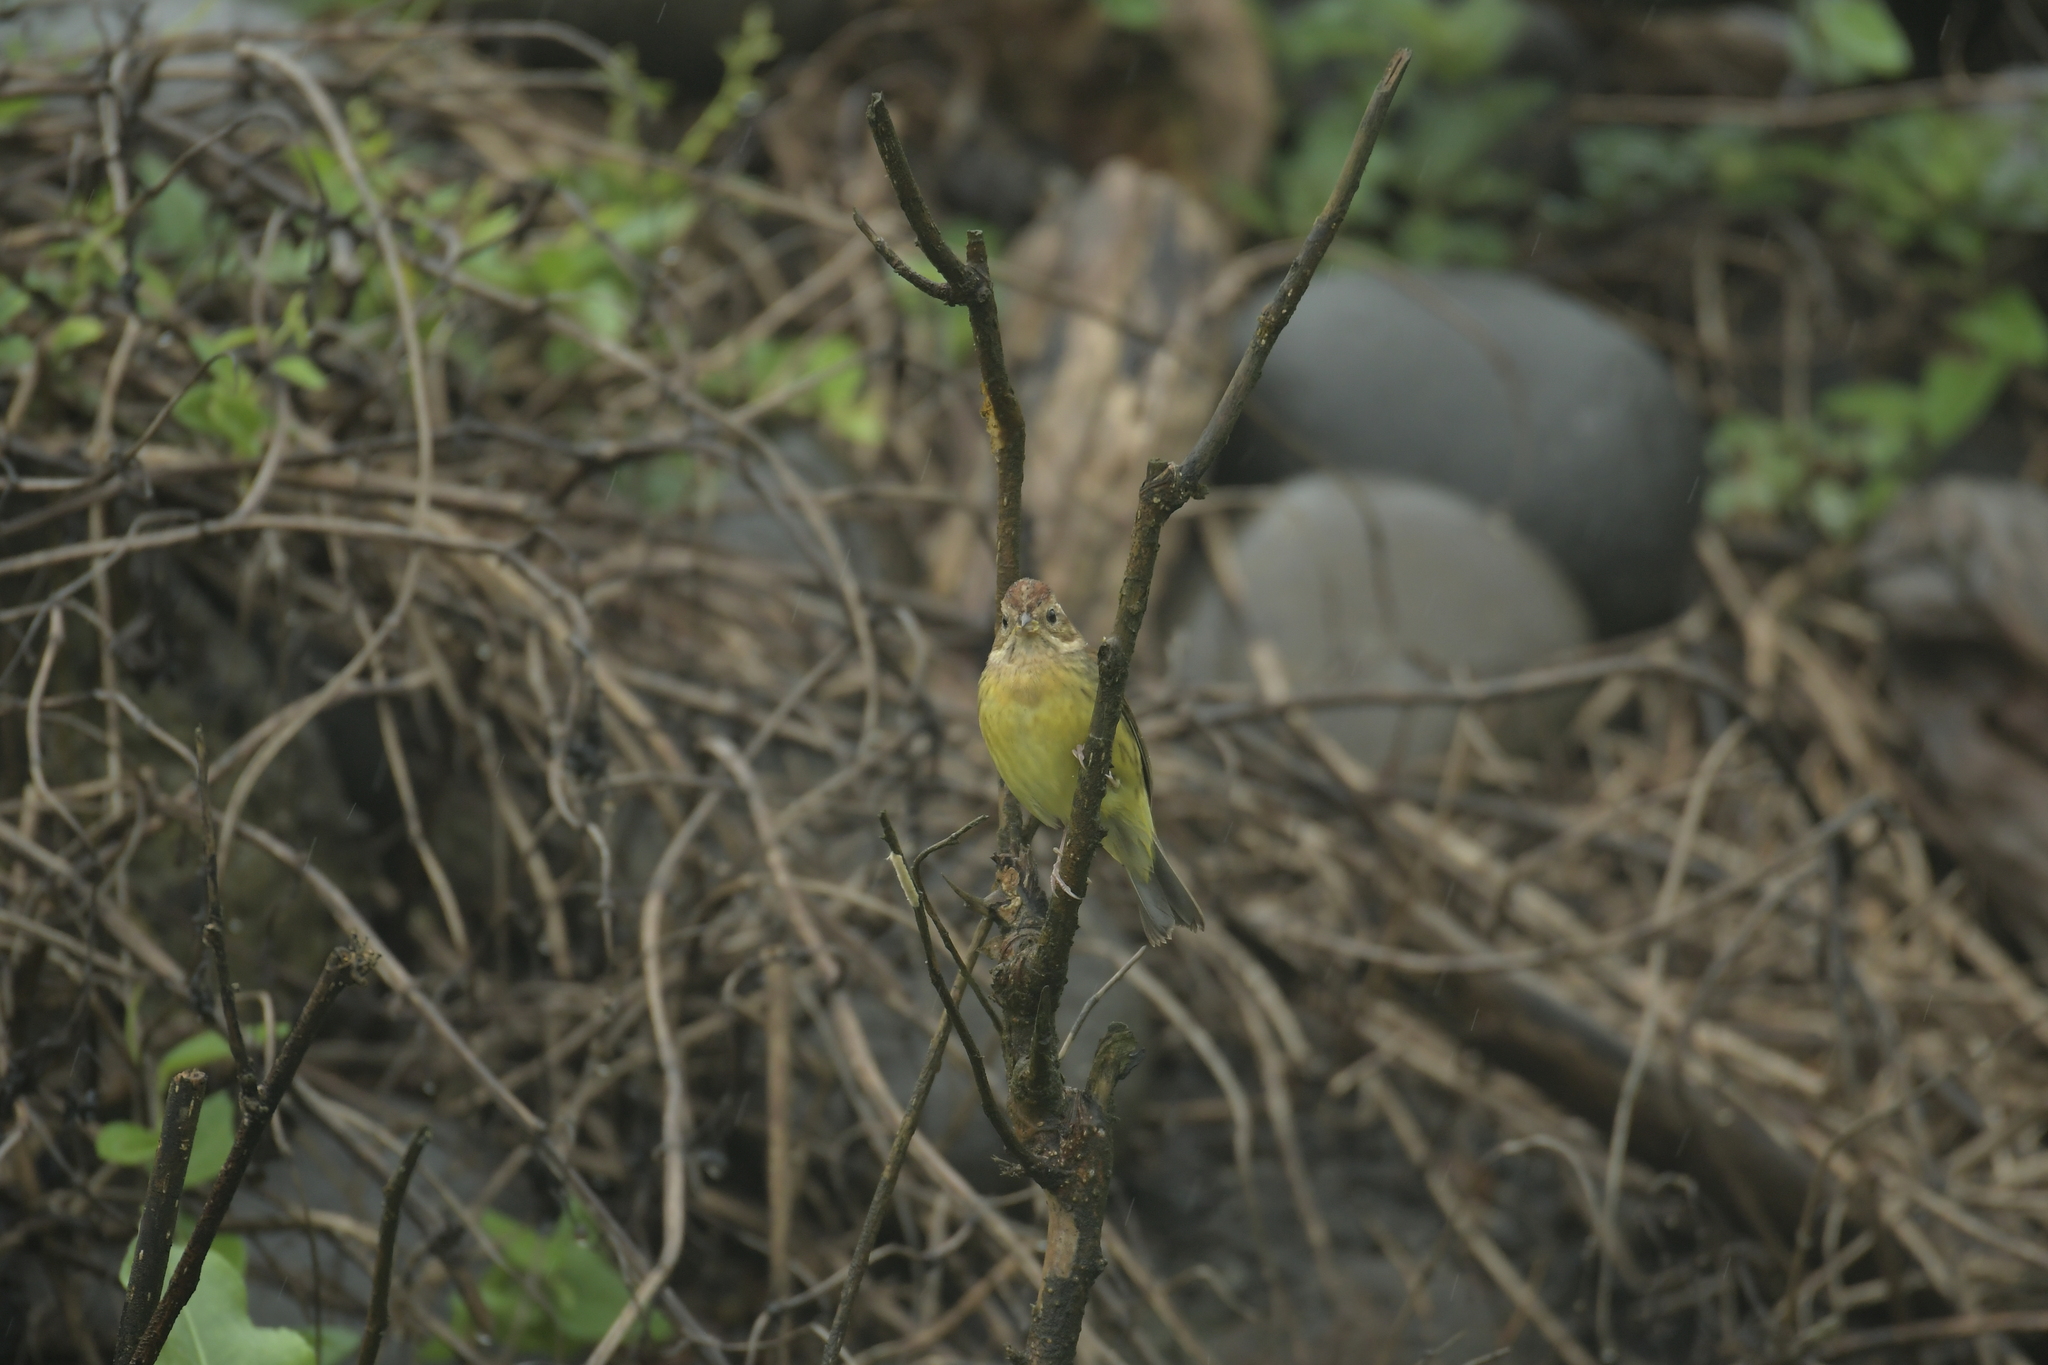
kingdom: Animalia
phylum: Chordata
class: Aves
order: Passeriformes
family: Emberizidae
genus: Emberiza
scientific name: Emberiza rutila
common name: Chestnut bunting
